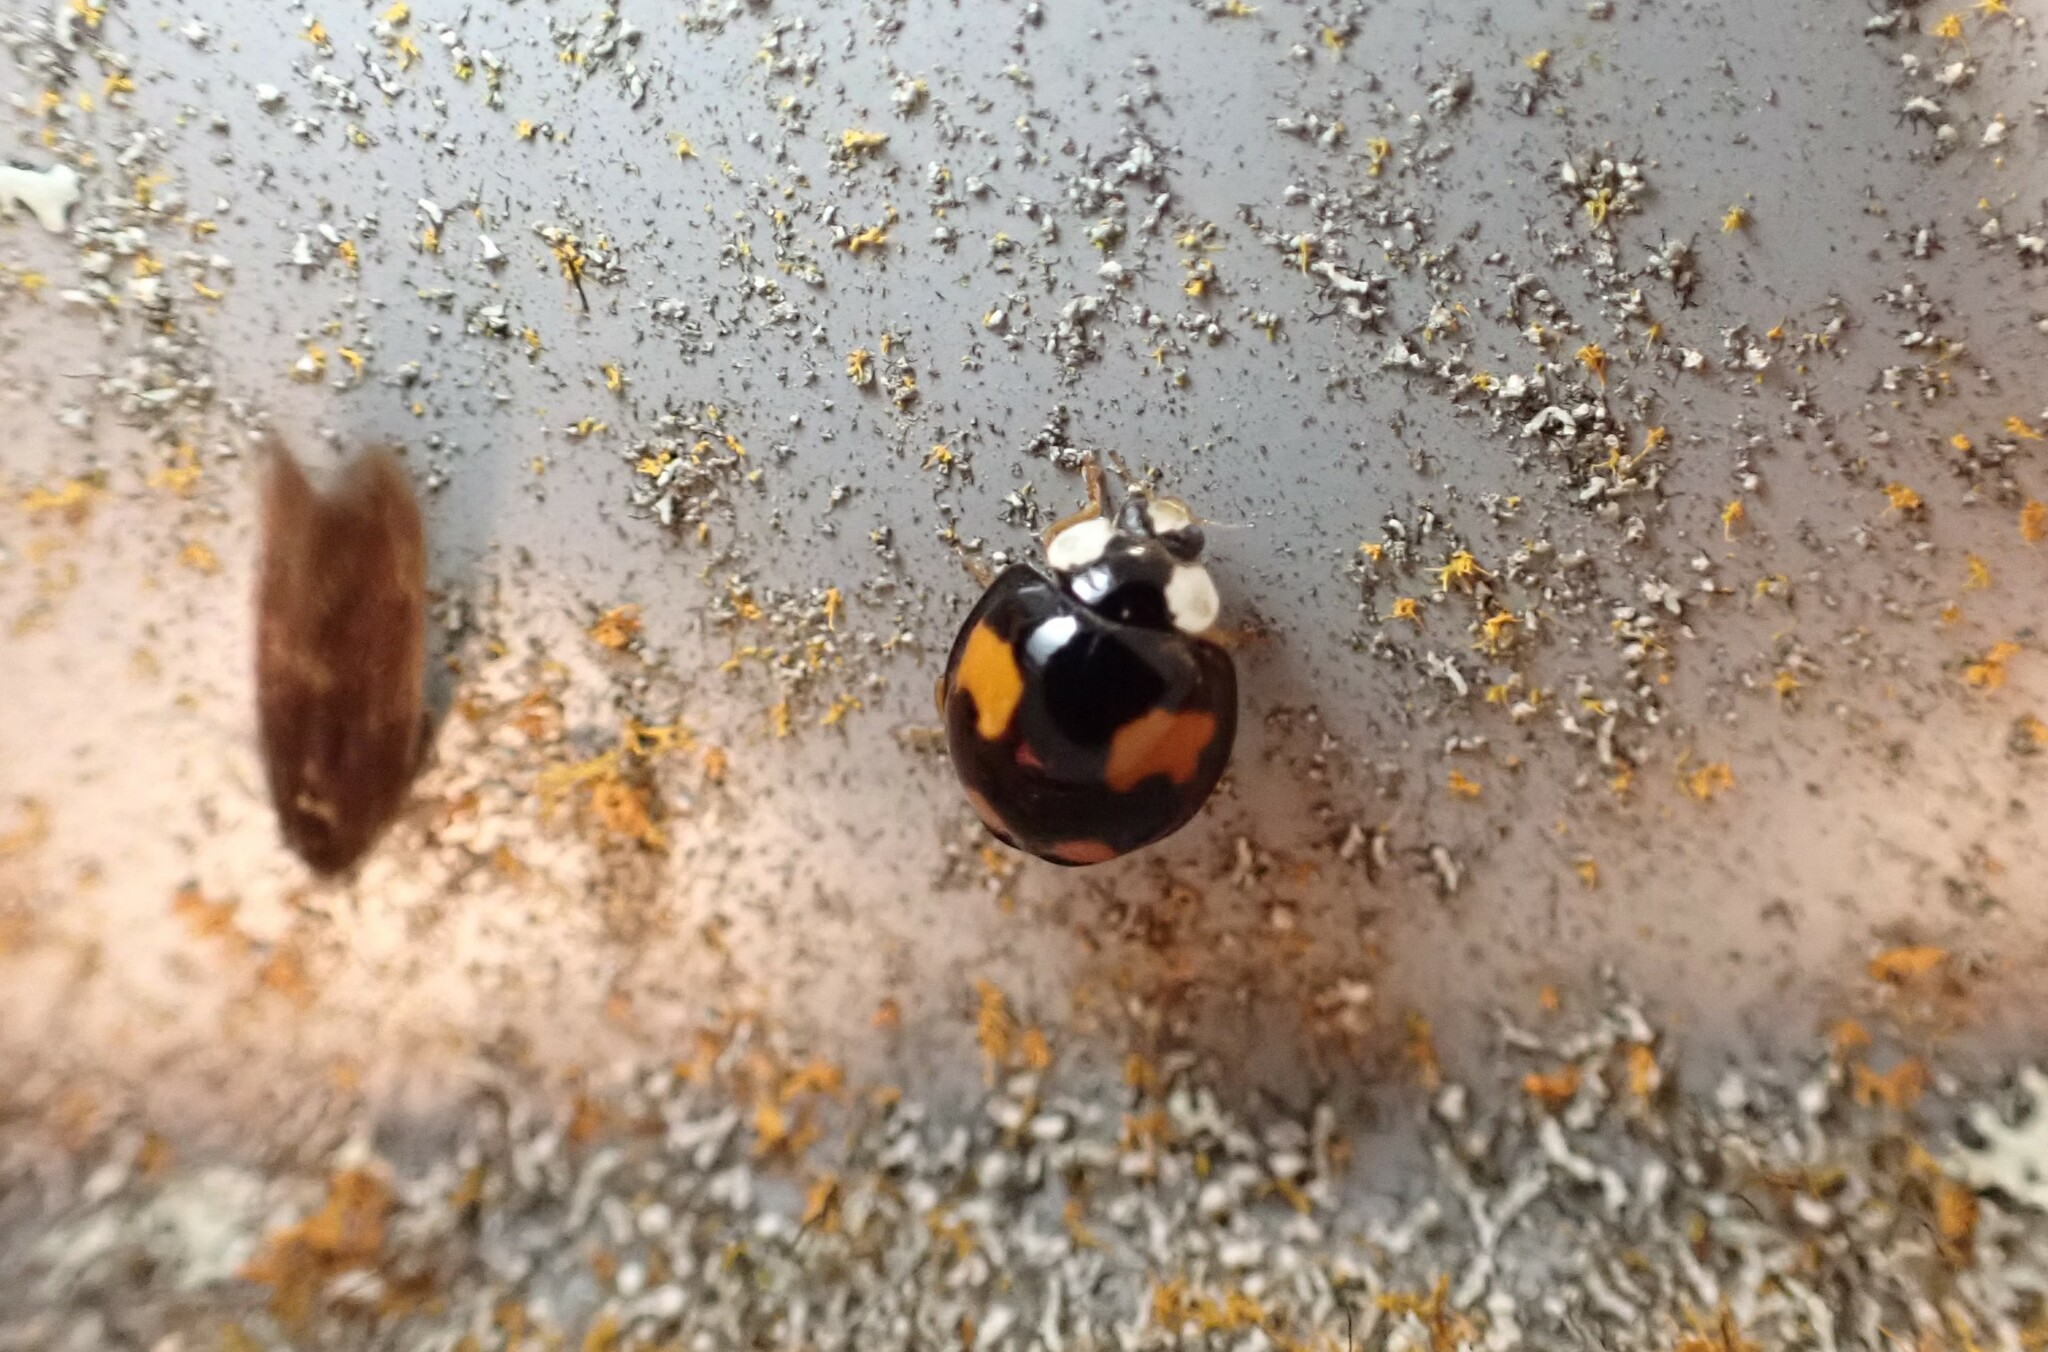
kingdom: Animalia
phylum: Arthropoda
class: Insecta
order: Coleoptera
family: Coccinellidae
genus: Harmonia
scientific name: Harmonia axyridis
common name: Harlequin ladybird
